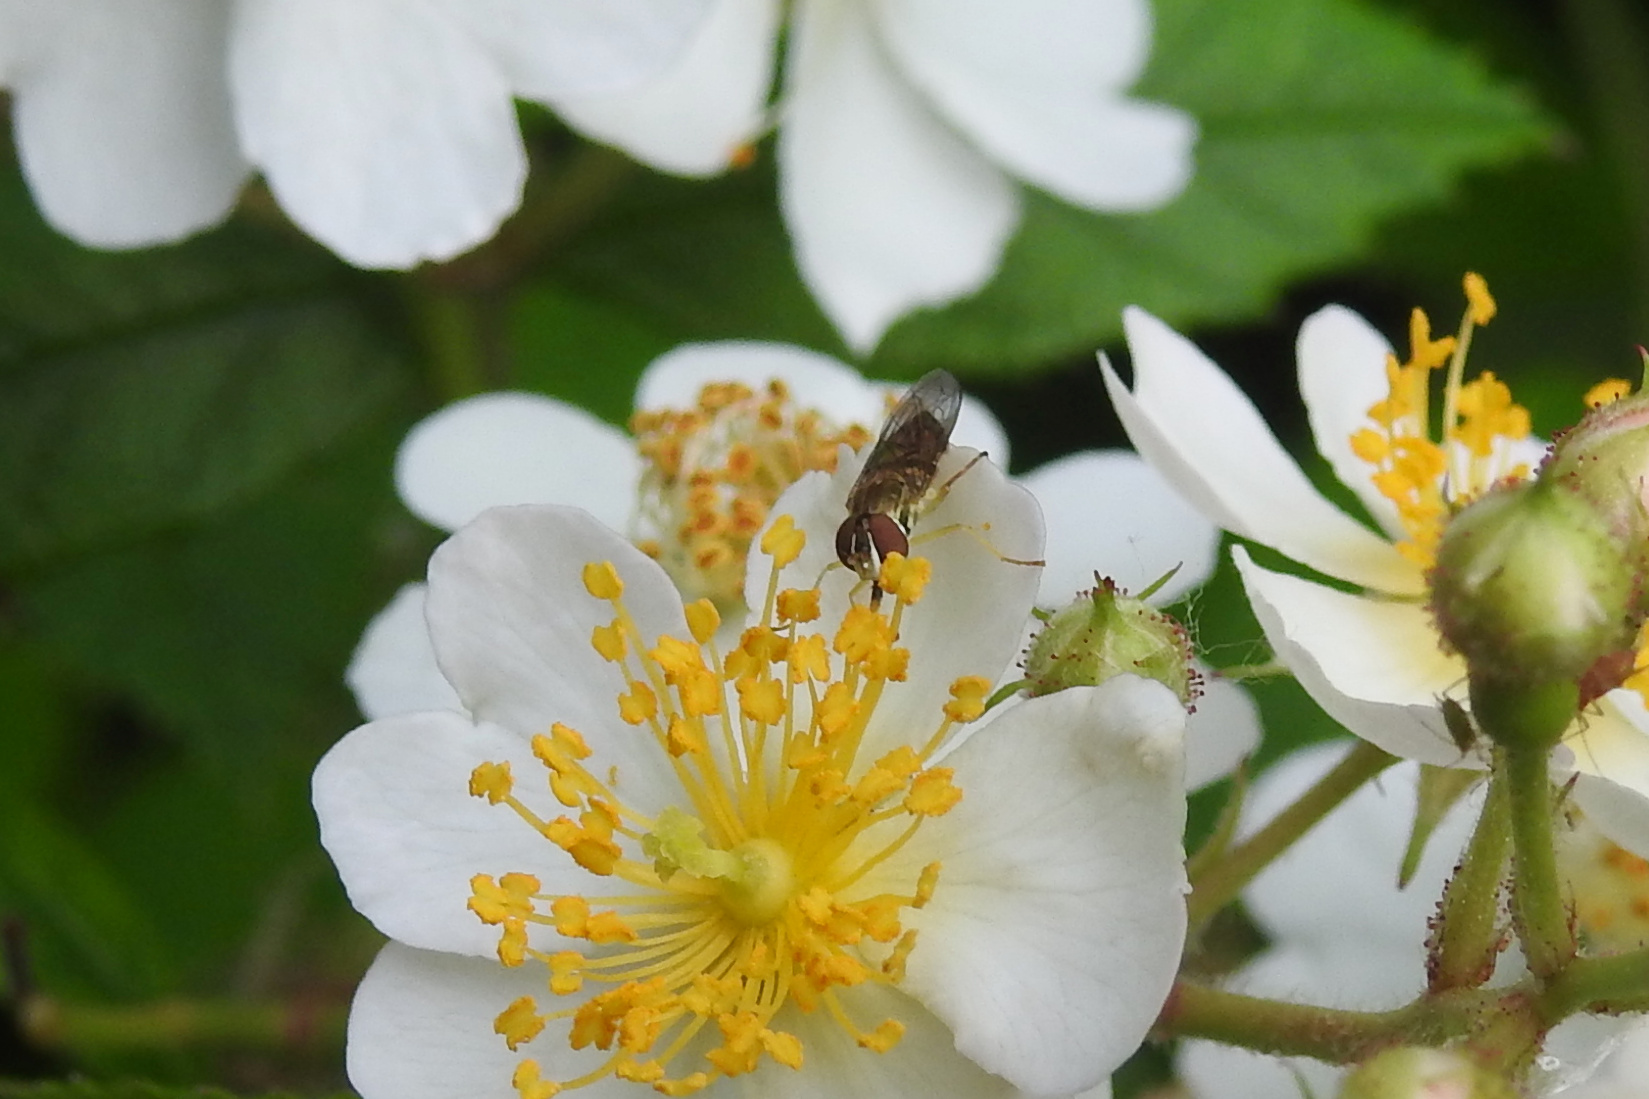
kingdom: Animalia
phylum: Arthropoda
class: Insecta
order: Diptera
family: Syrphidae
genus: Toxomerus
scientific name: Toxomerus
